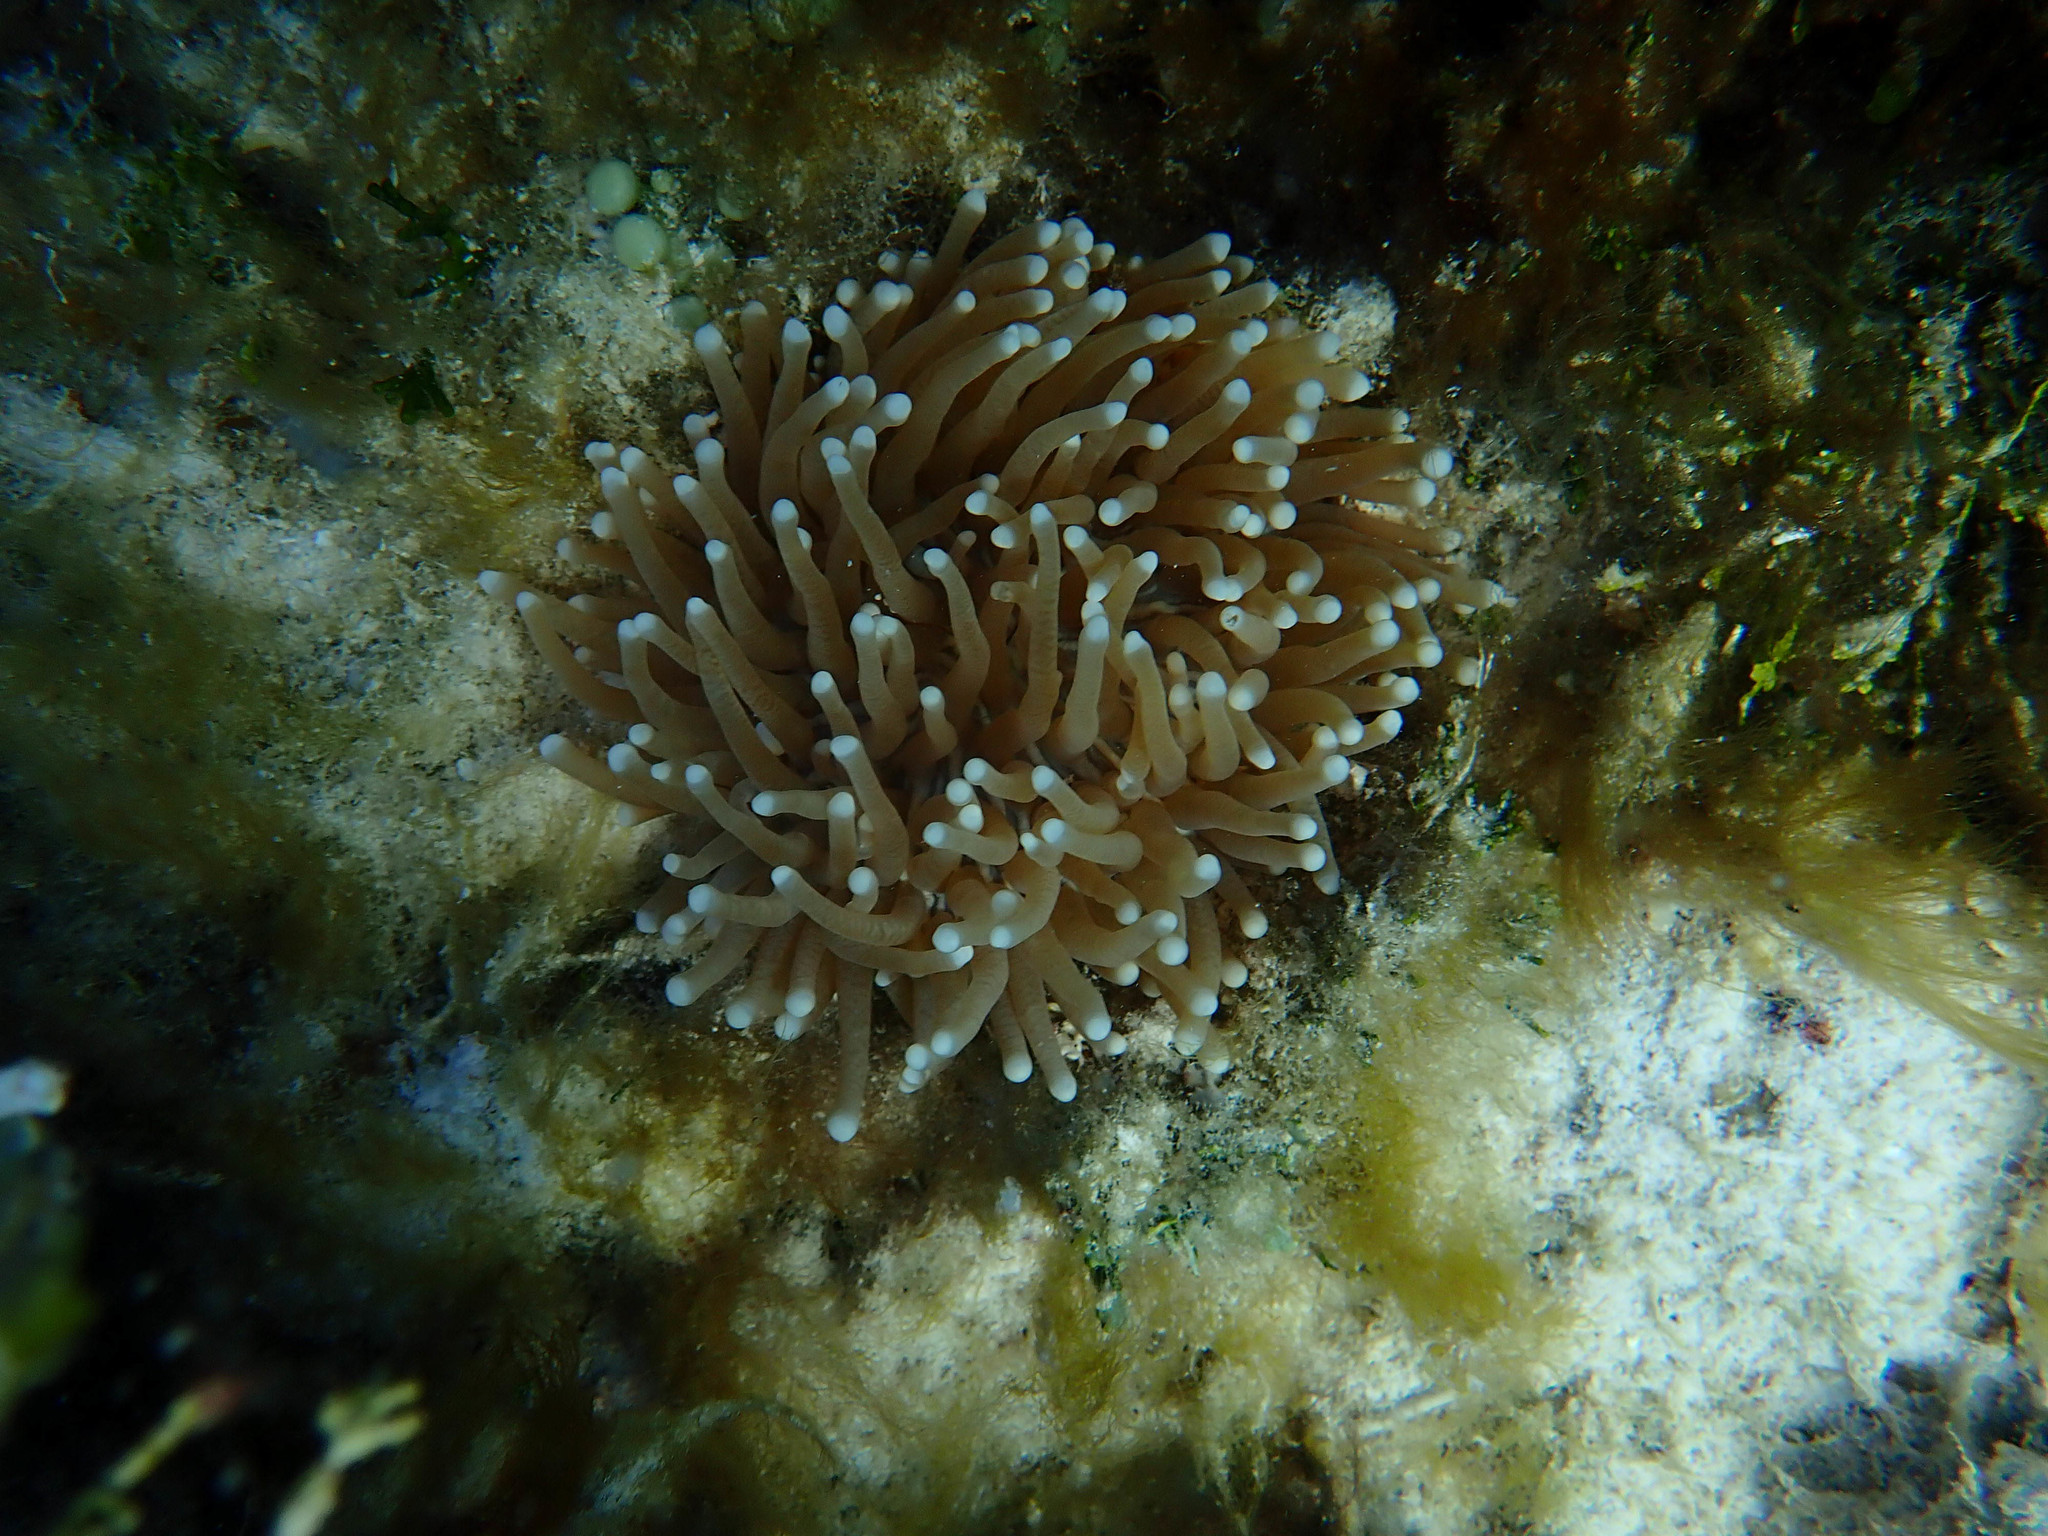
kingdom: Animalia
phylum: Cnidaria
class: Anthozoa
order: Scleractinia
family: Fungiidae
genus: Heliofungia
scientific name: Heliofungia actiniformis
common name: Plate coral
